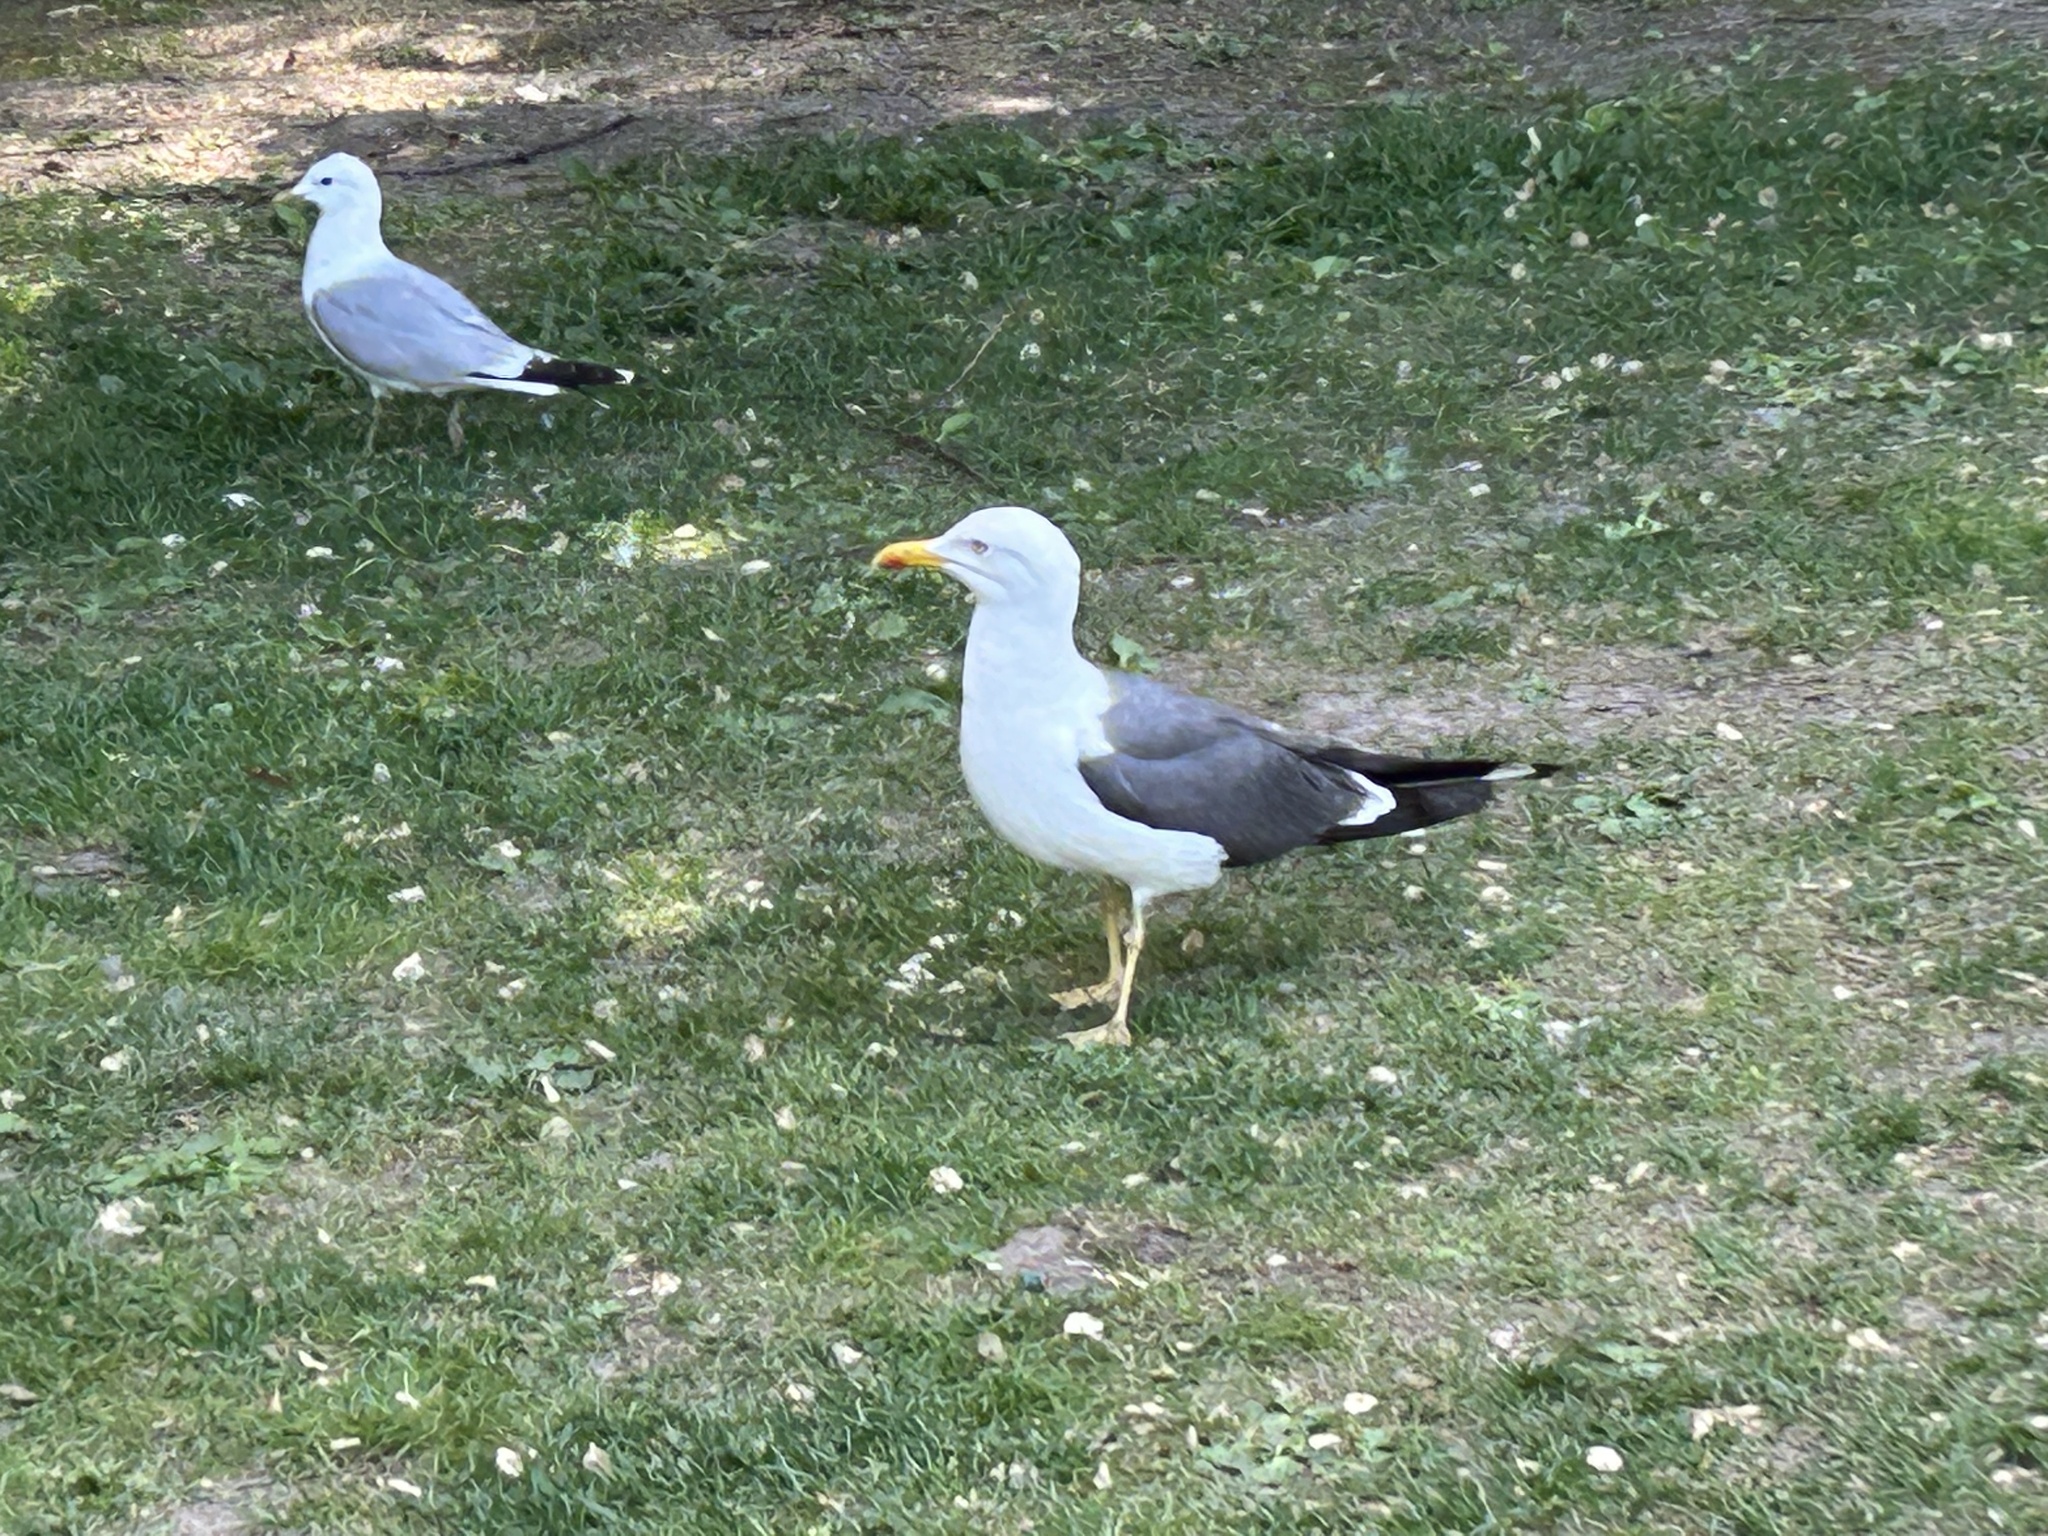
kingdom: Animalia
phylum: Chordata
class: Aves
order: Charadriiformes
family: Laridae
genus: Larus
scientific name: Larus fuscus
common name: Lesser black-backed gull
